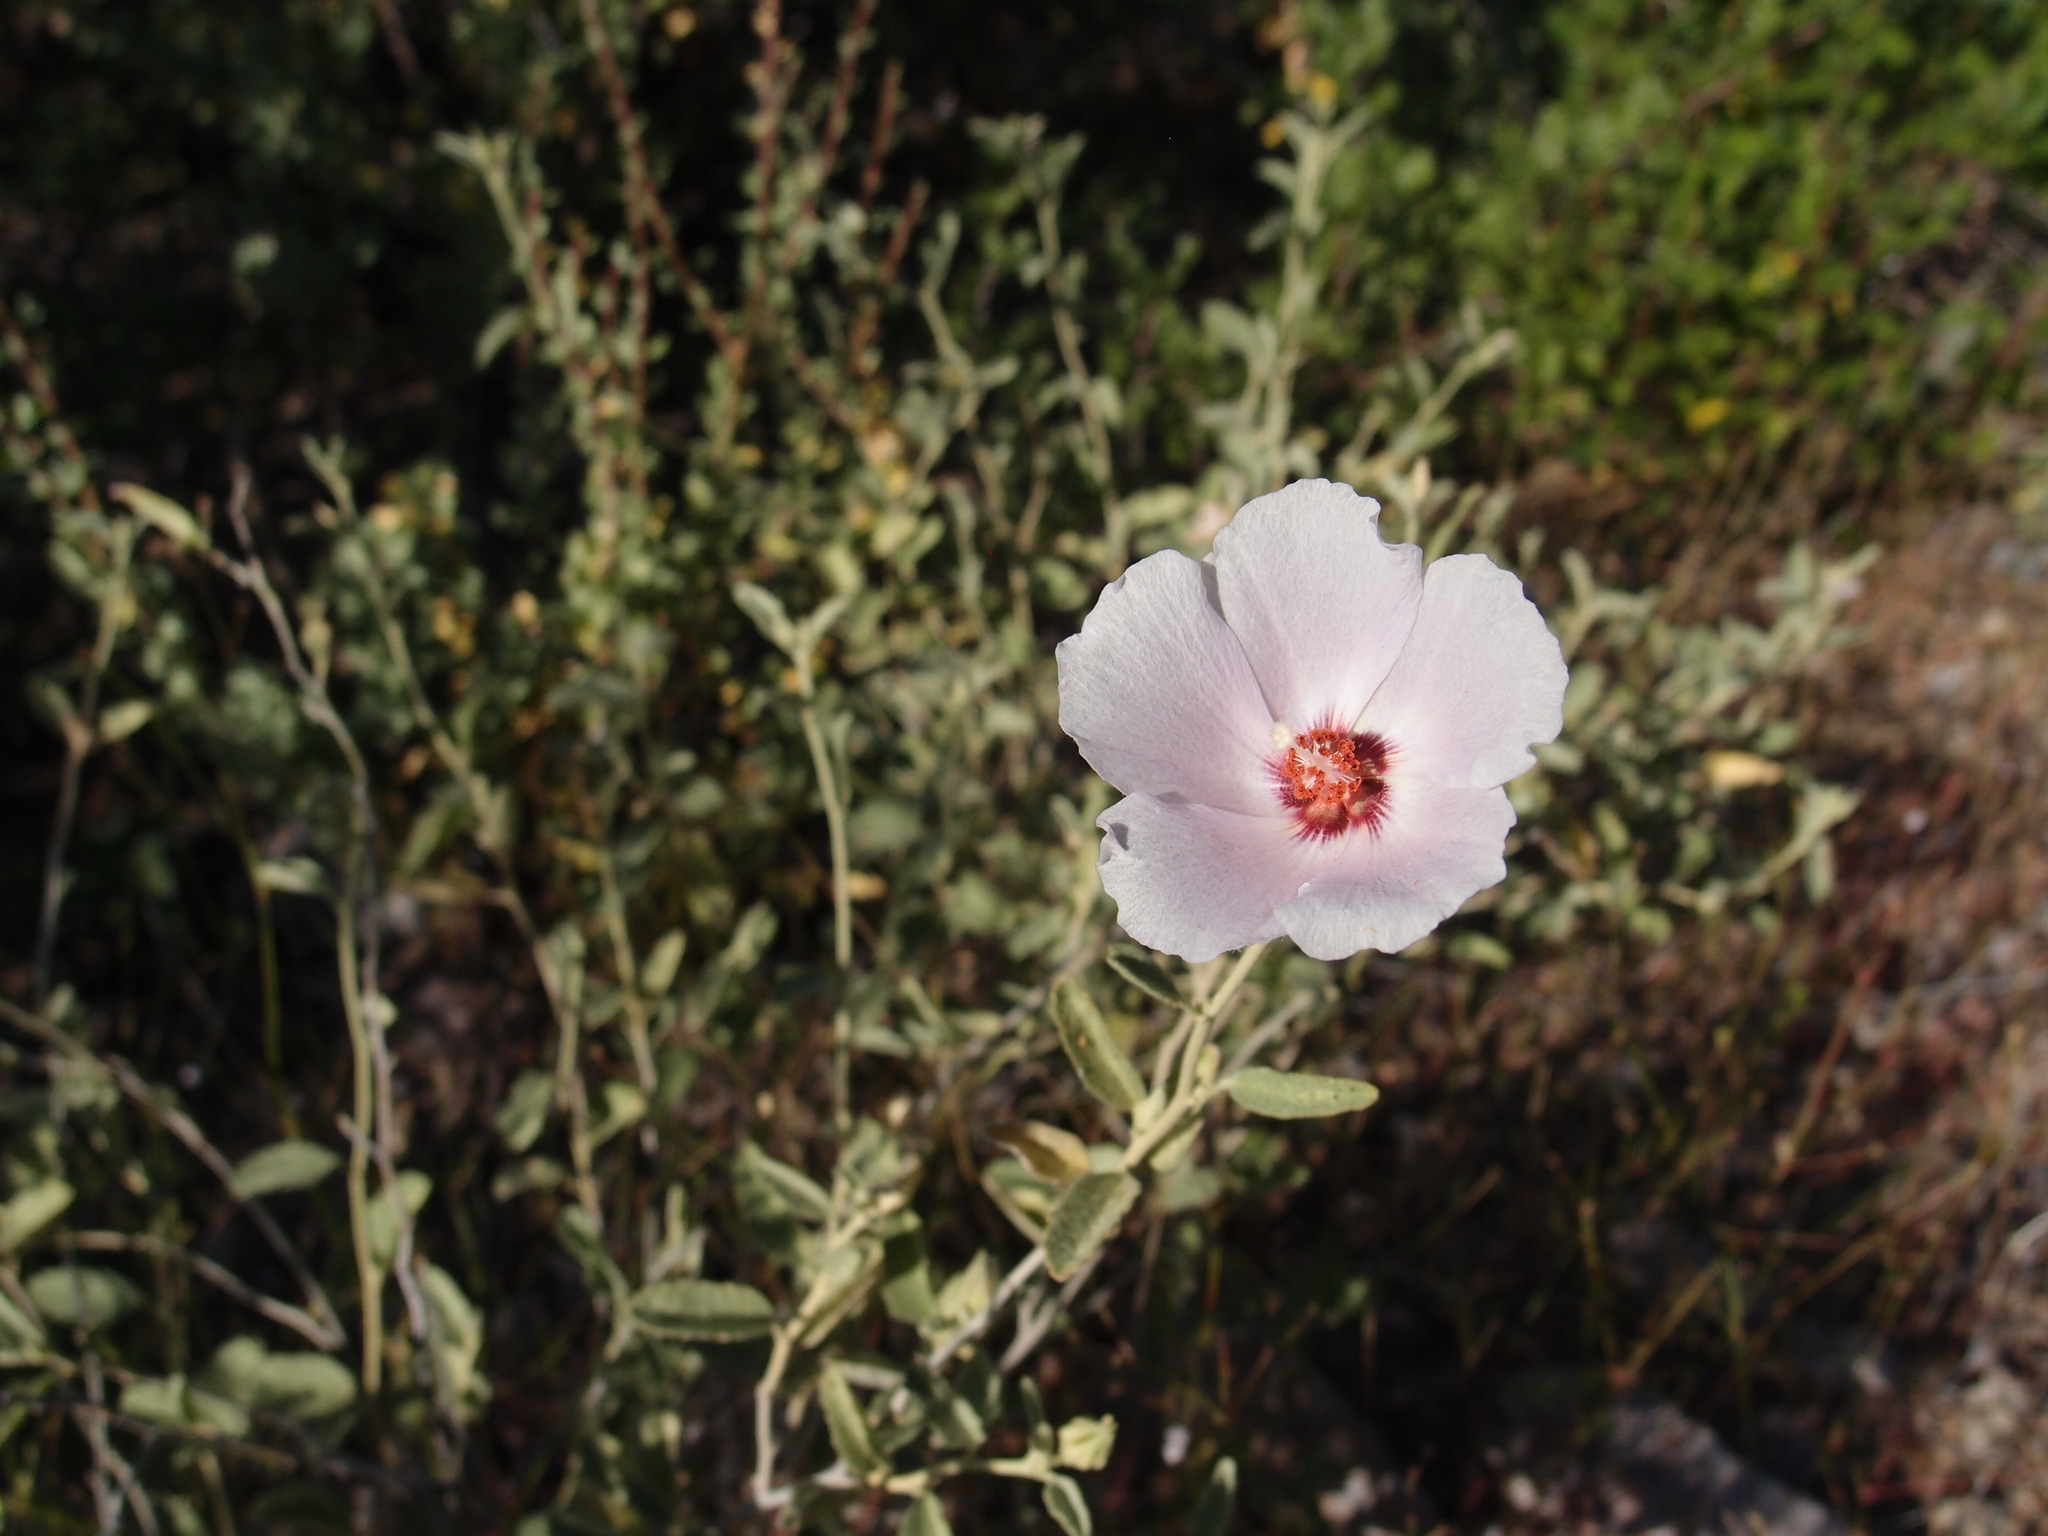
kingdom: Plantae
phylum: Tracheophyta
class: Magnoliopsida
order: Malvales
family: Malvaceae
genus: Hibiscus
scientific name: Hibiscus denudatus
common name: Paleface
